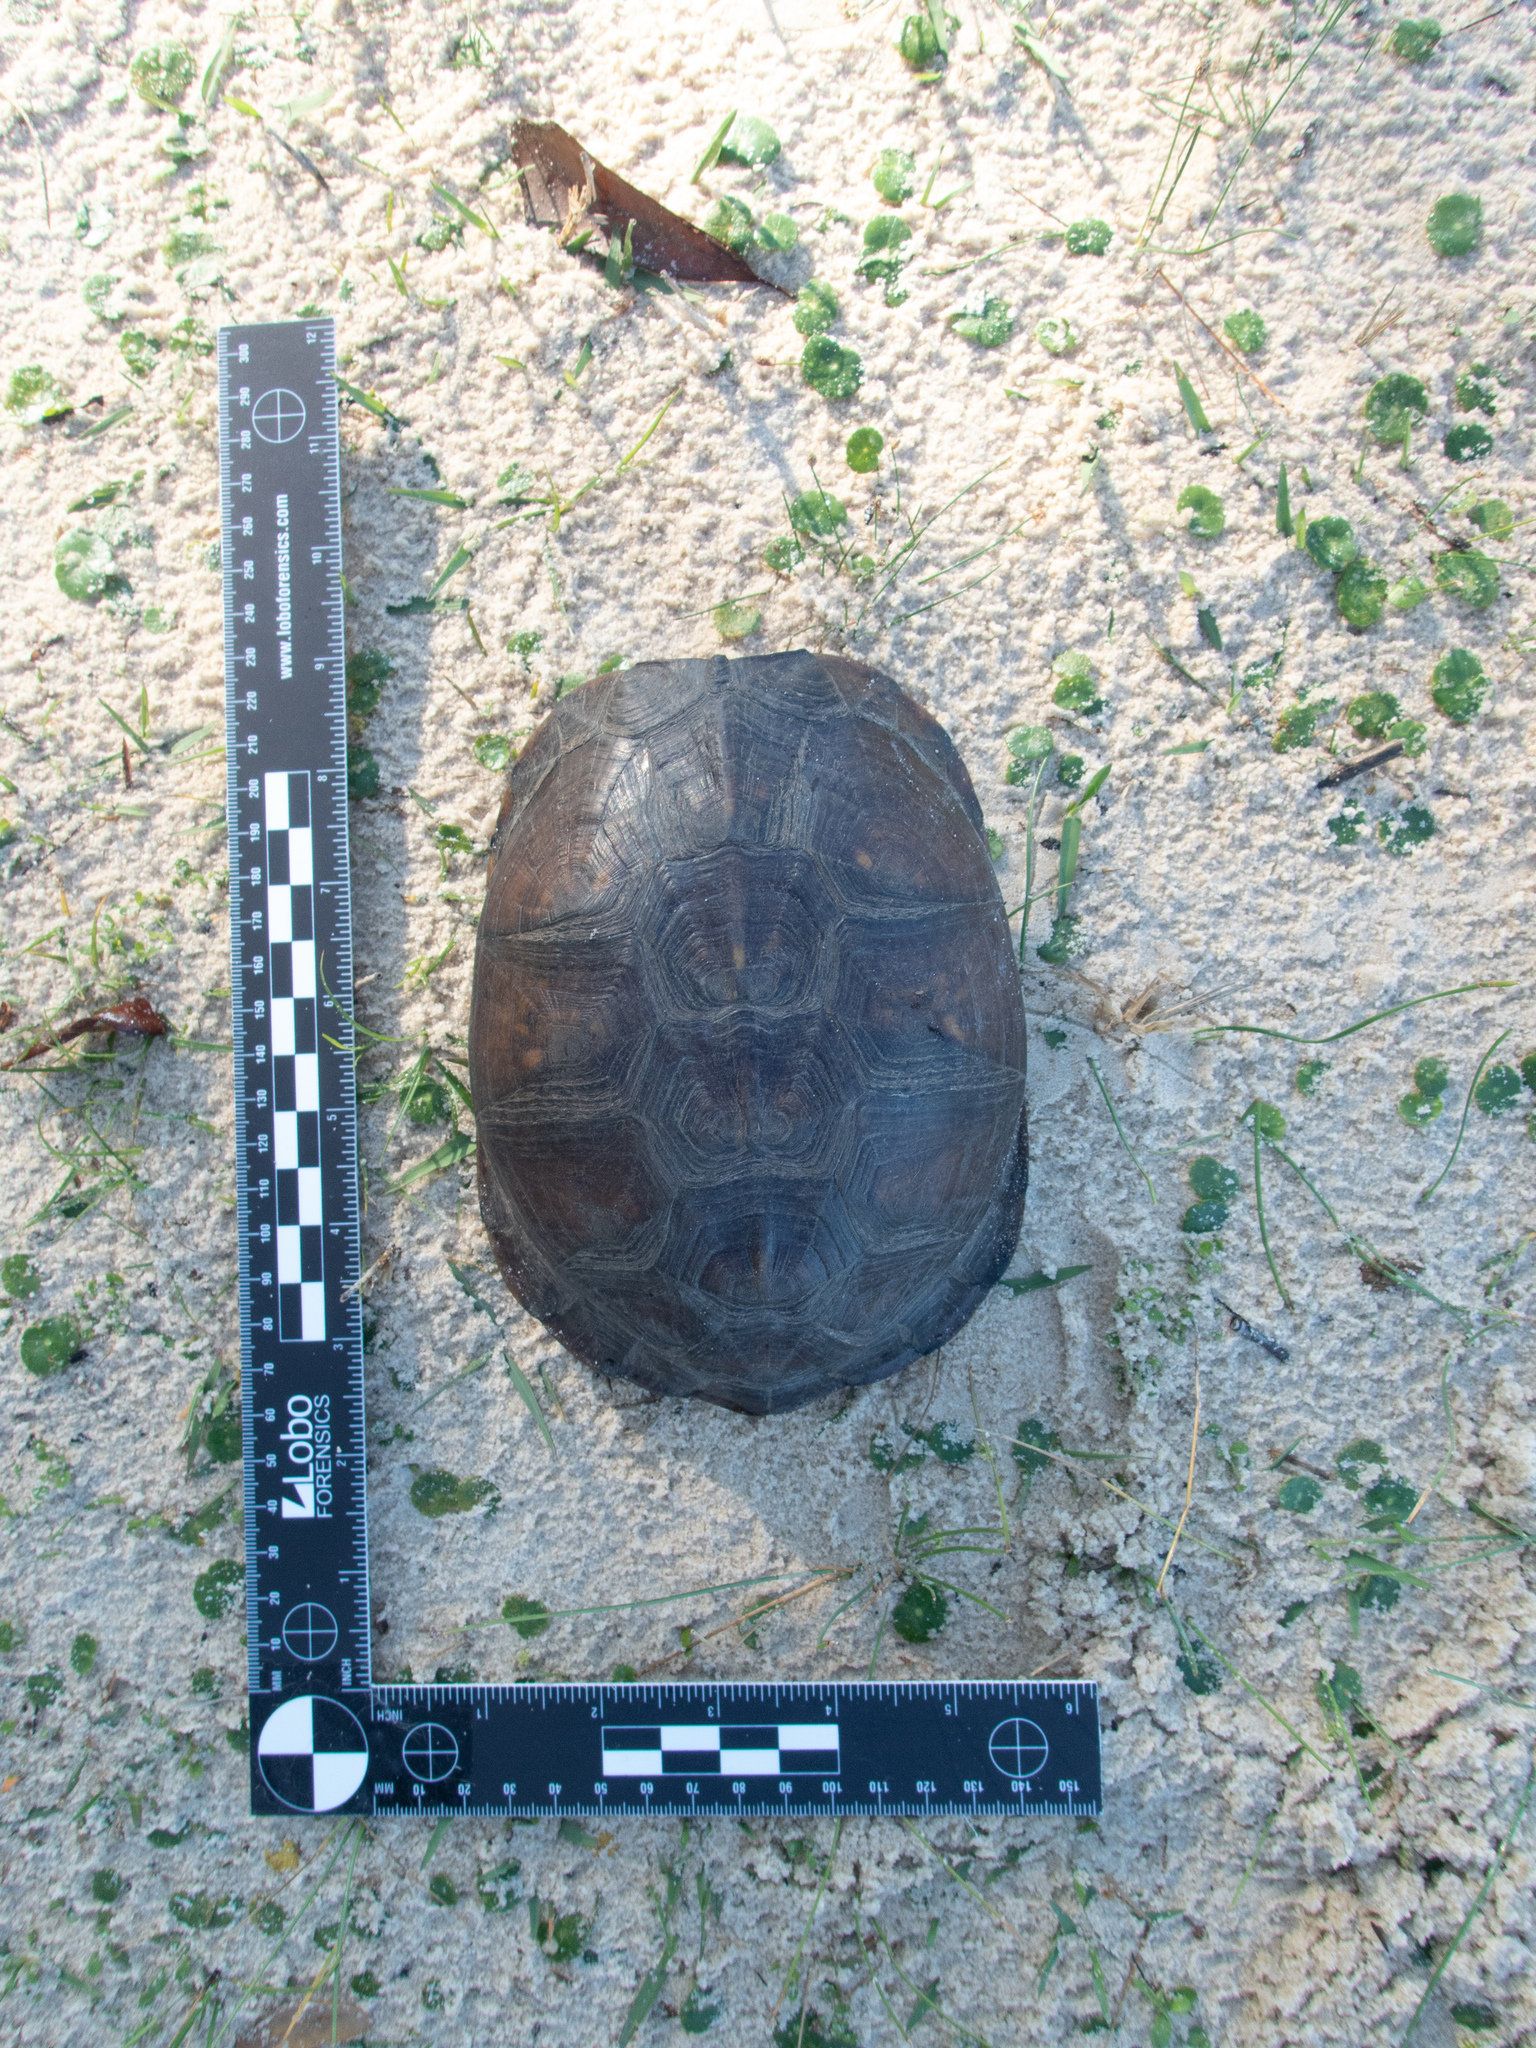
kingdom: Animalia
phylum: Chordata
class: Testudines
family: Emydidae
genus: Terrapene
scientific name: Terrapene carolina
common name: Common box turtle
